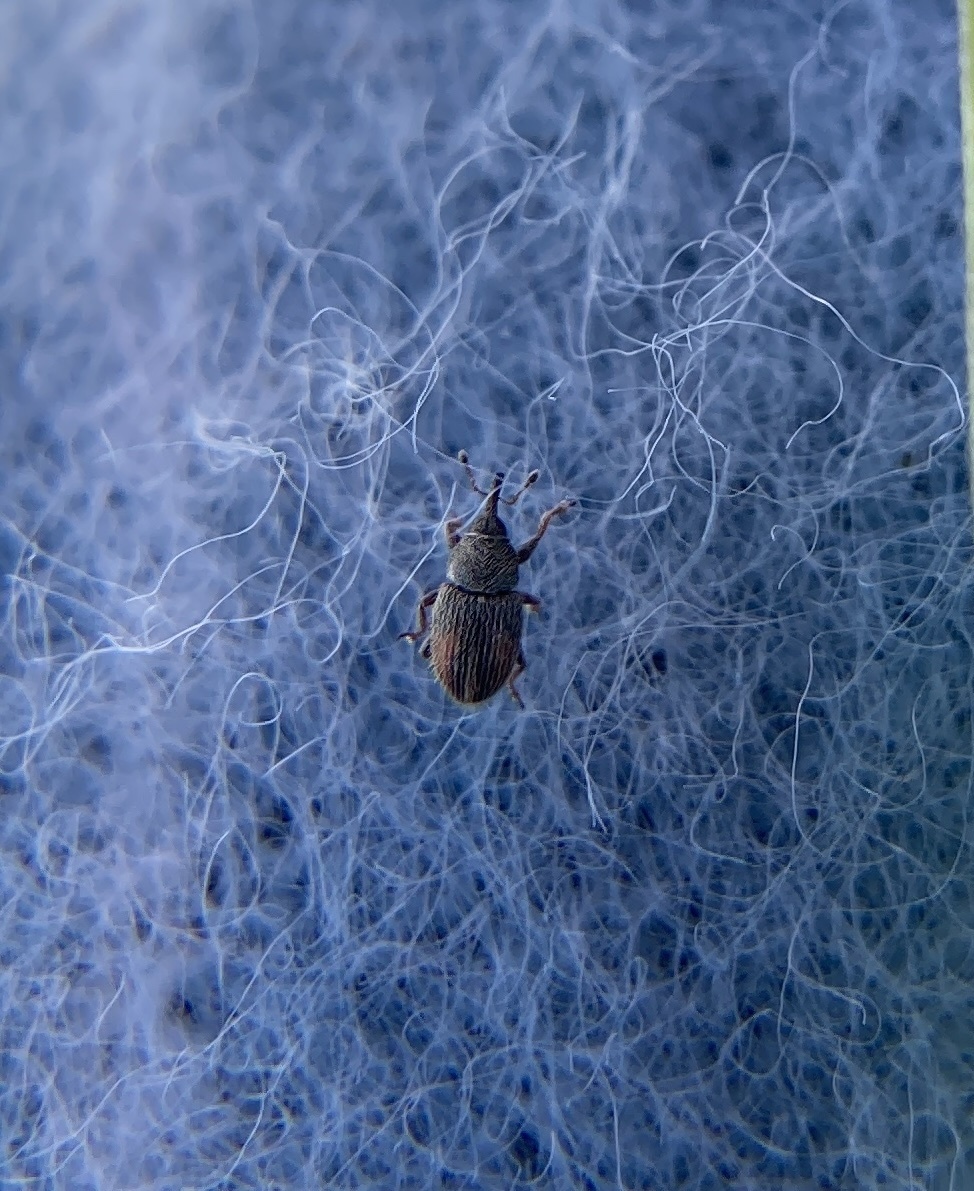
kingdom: Animalia
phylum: Arthropoda
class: Insecta
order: Coleoptera
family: Curculionidae
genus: Mecinus
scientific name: Mecinus pascuorum
